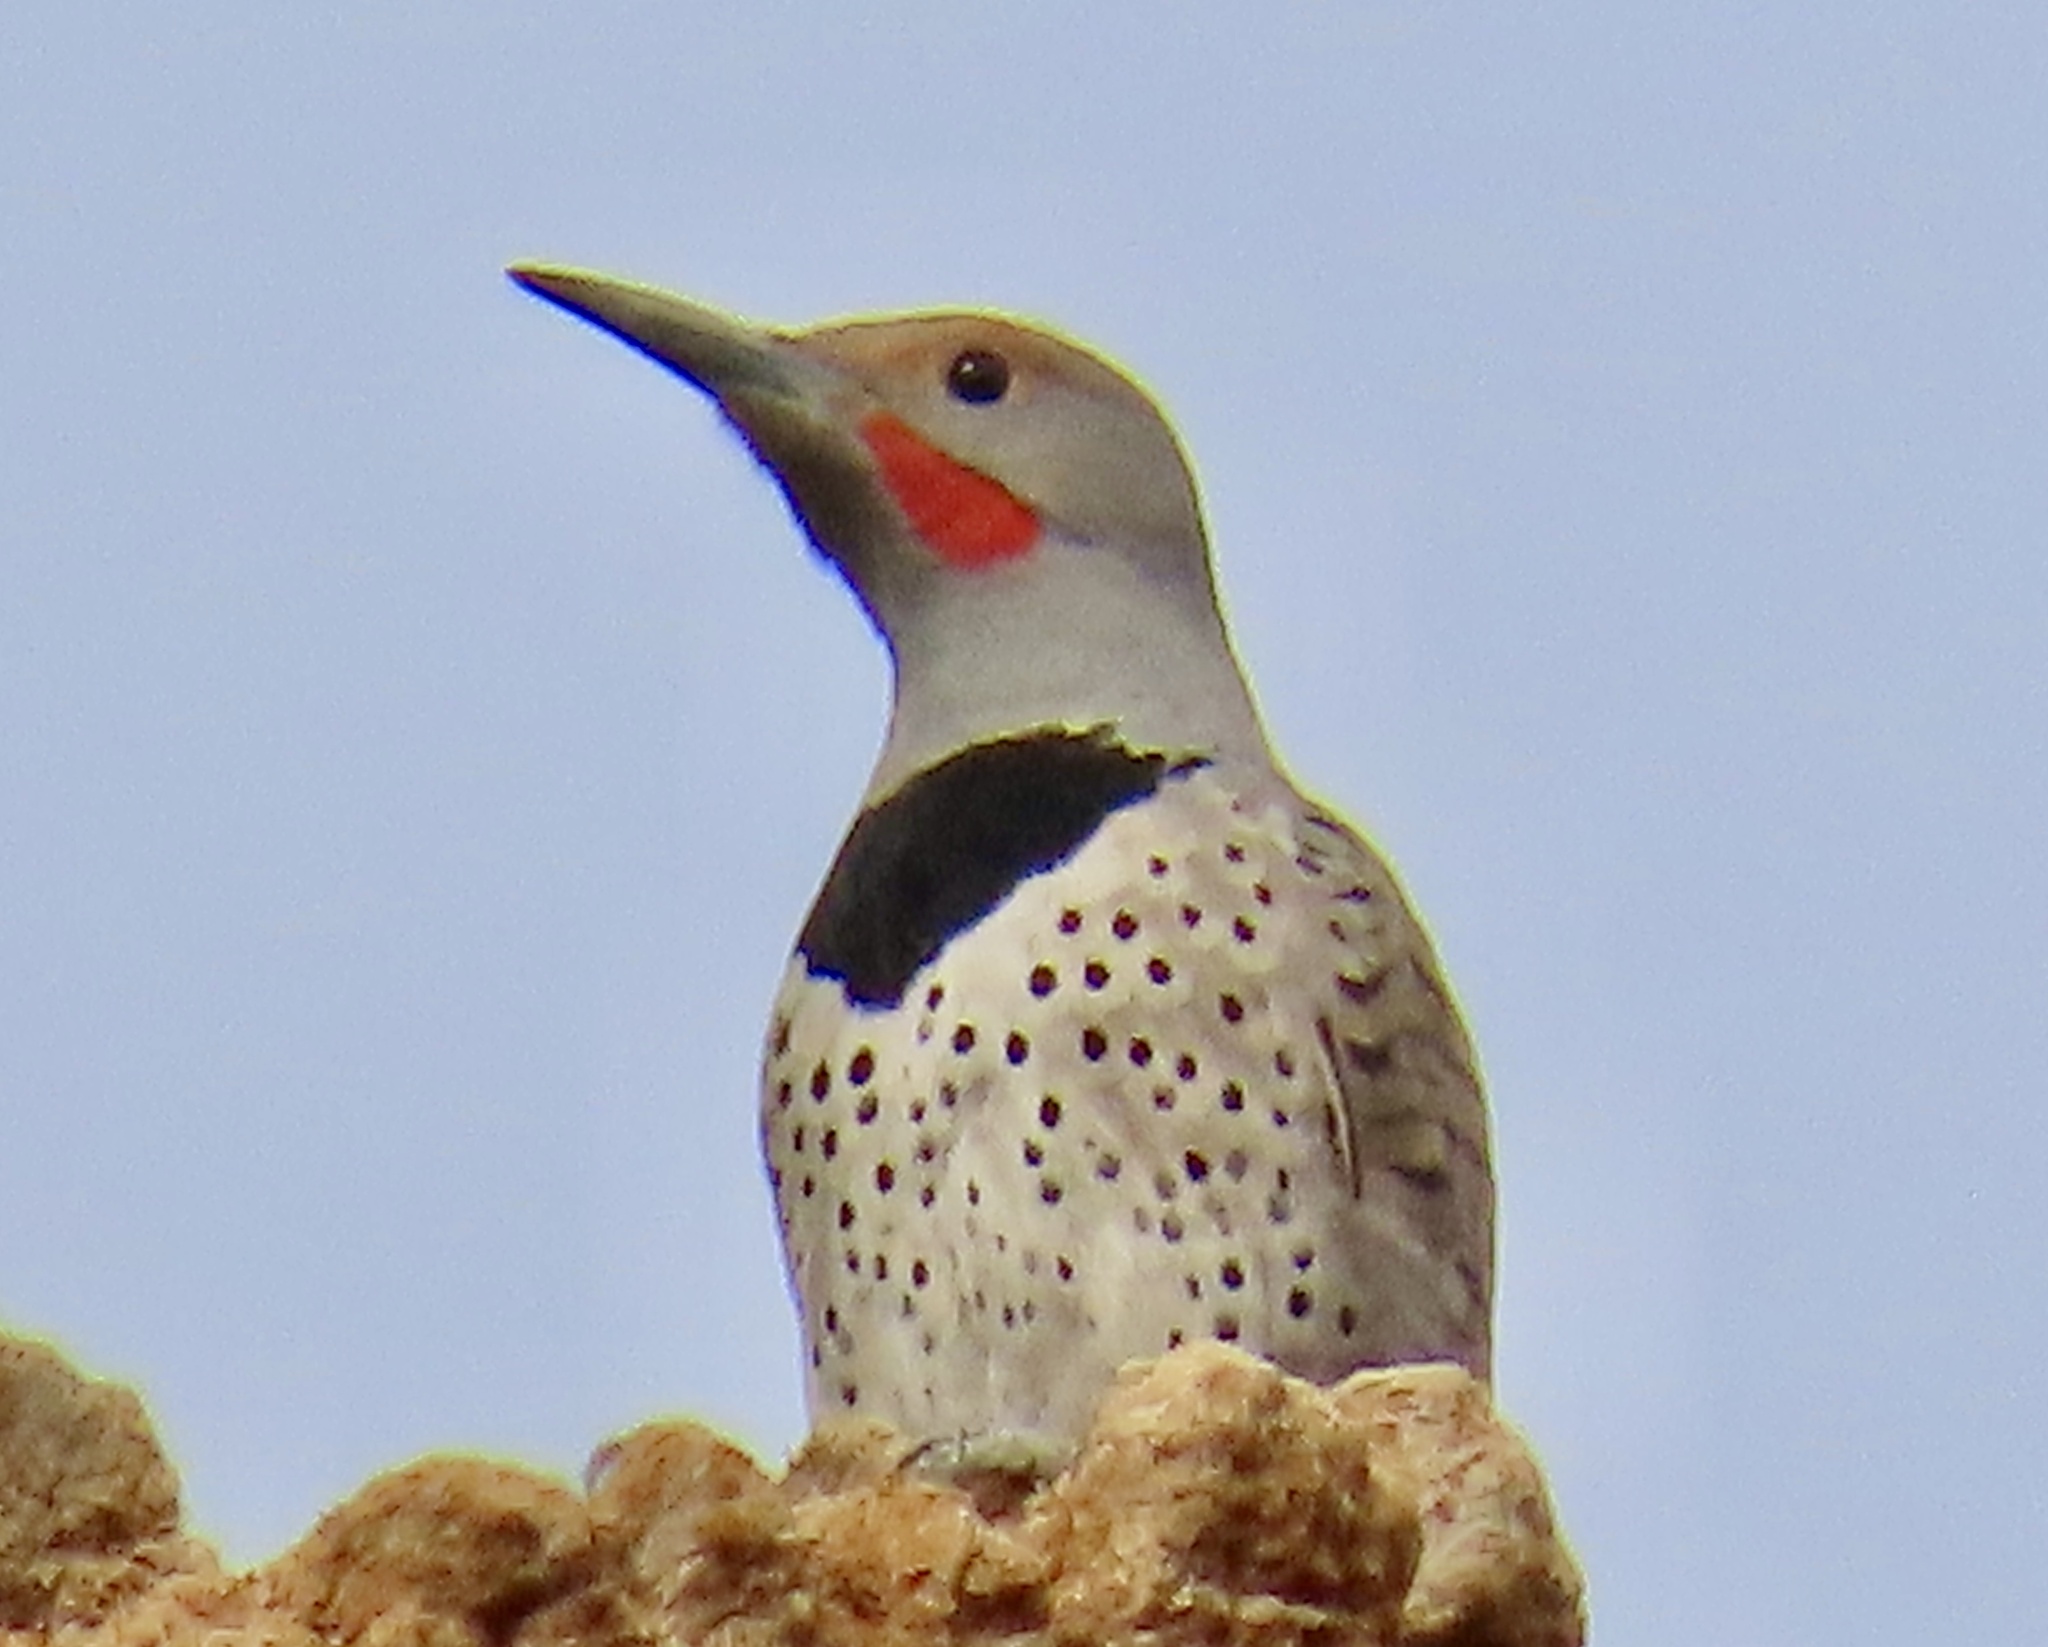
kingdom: Animalia
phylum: Chordata
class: Aves
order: Piciformes
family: Picidae
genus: Colaptes
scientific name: Colaptes auratus
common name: Northern flicker
